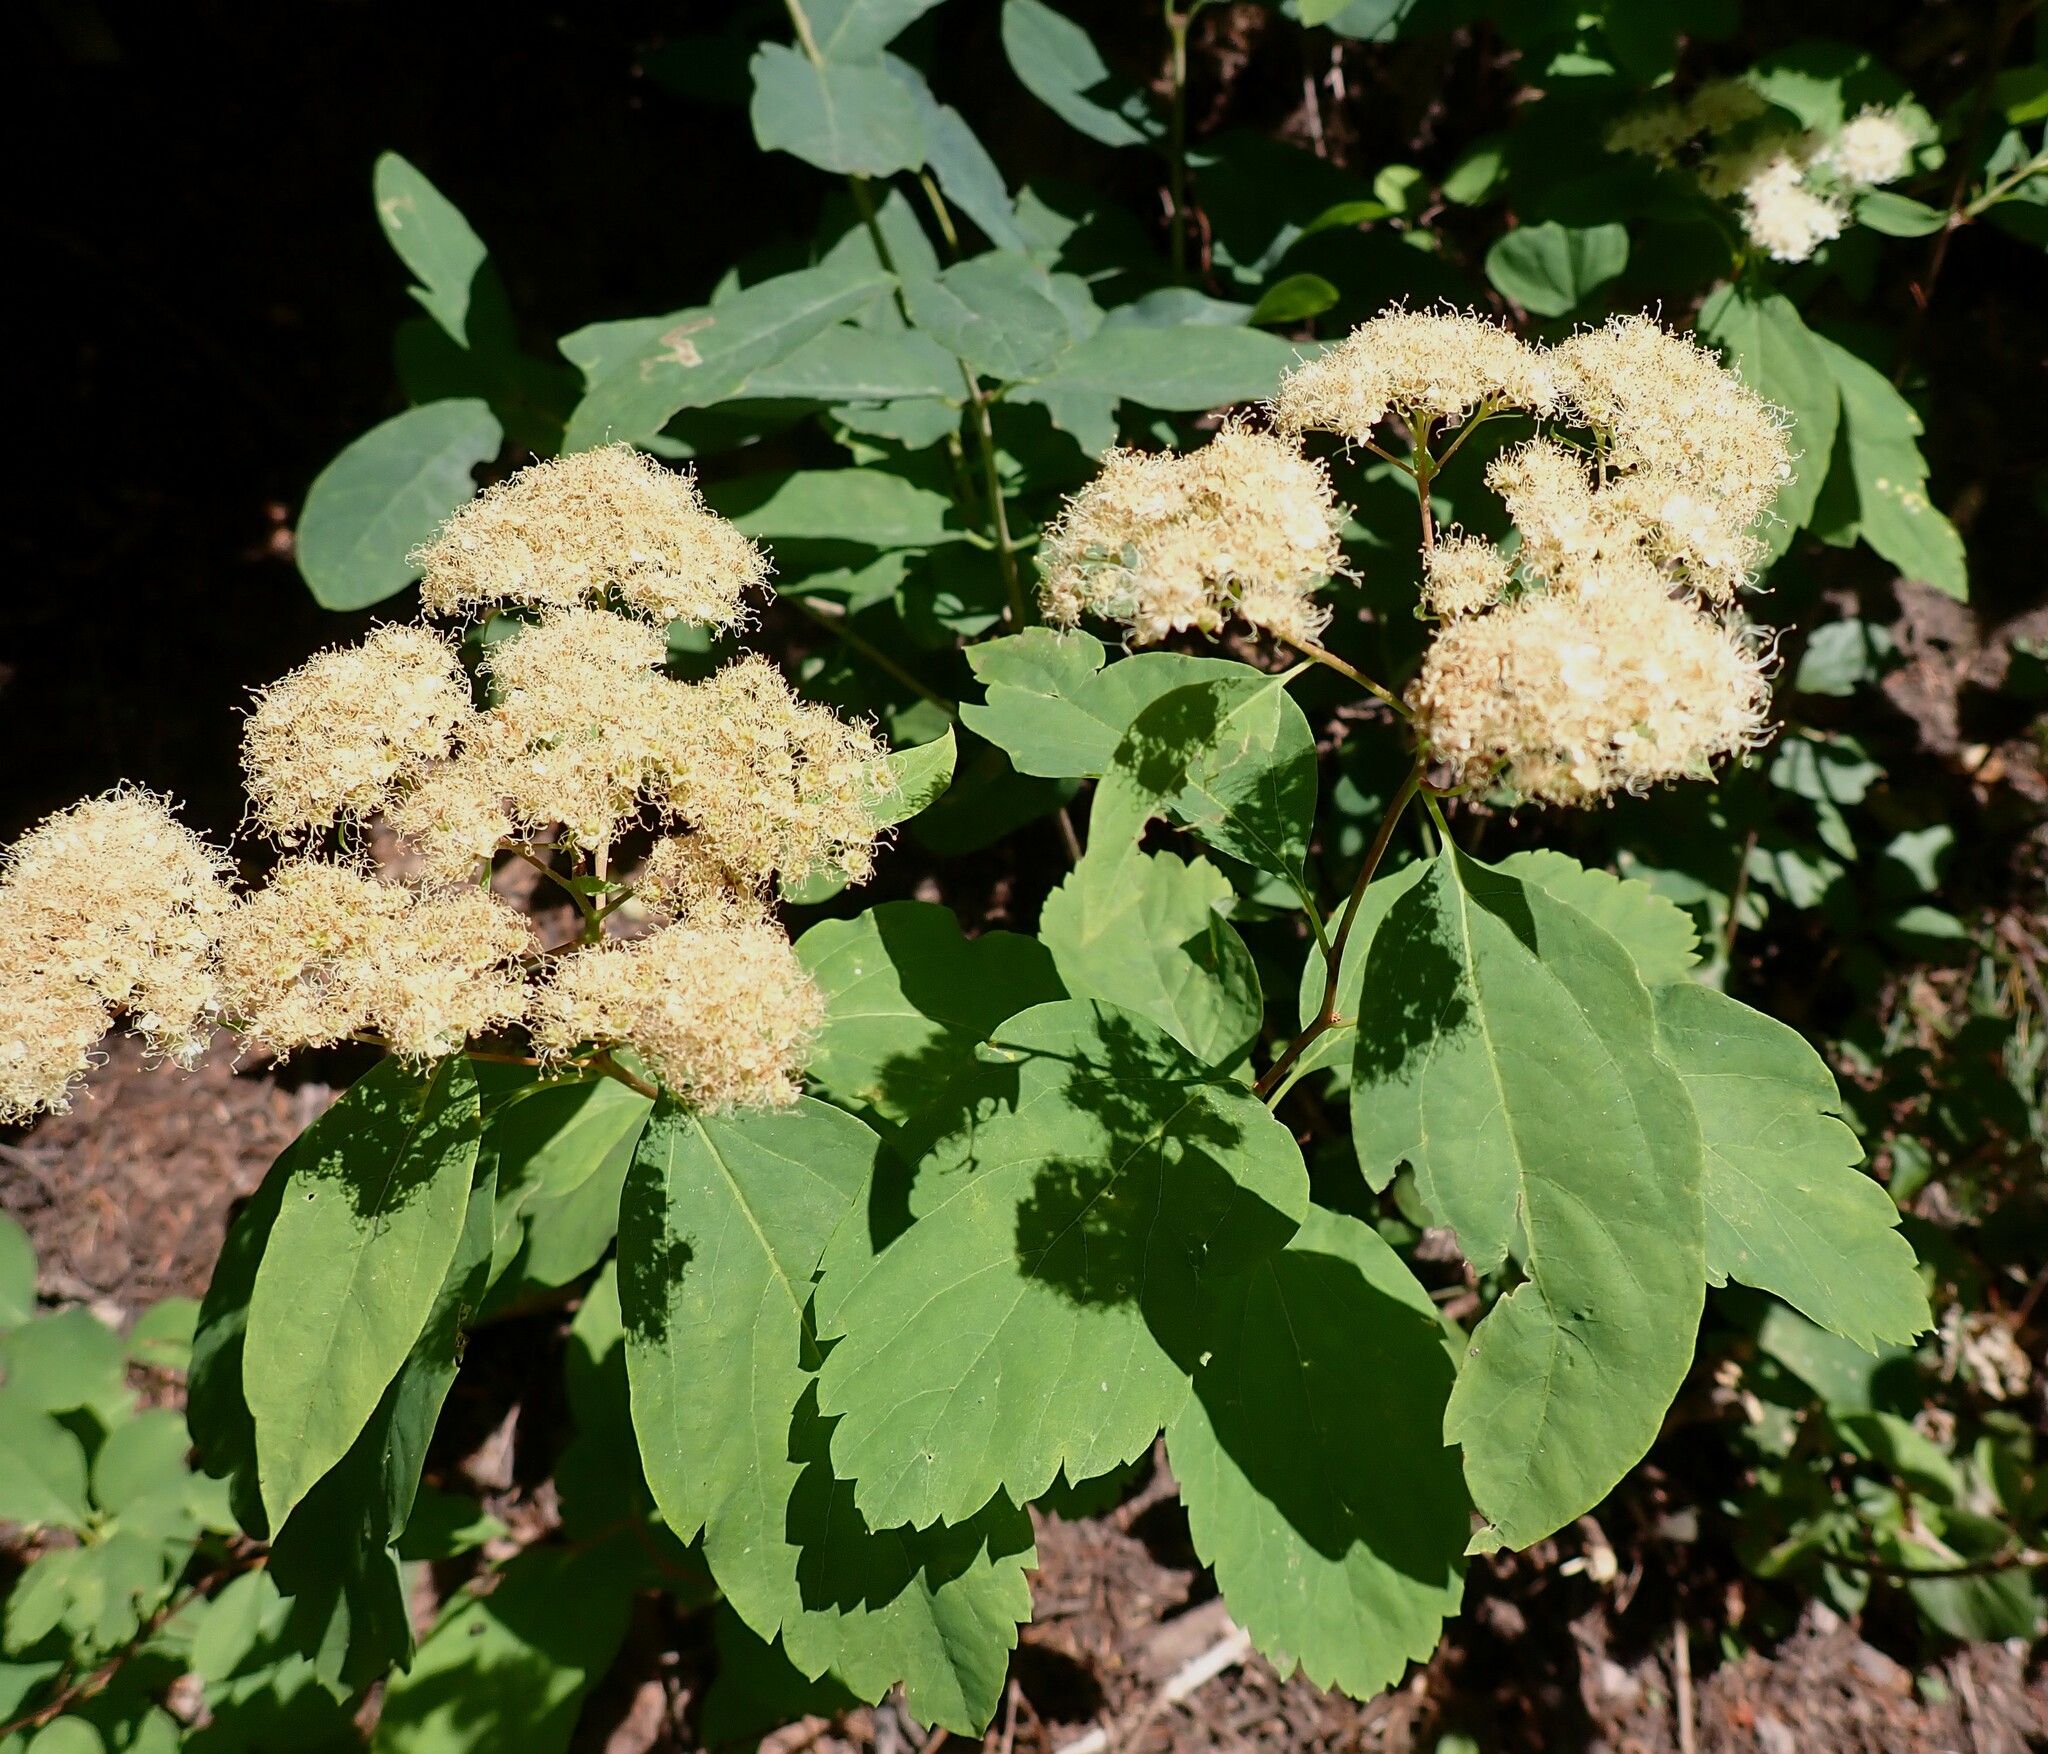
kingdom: Plantae
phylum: Tracheophyta
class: Magnoliopsida
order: Rosales
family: Rosaceae
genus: Spiraea
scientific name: Spiraea lucida
